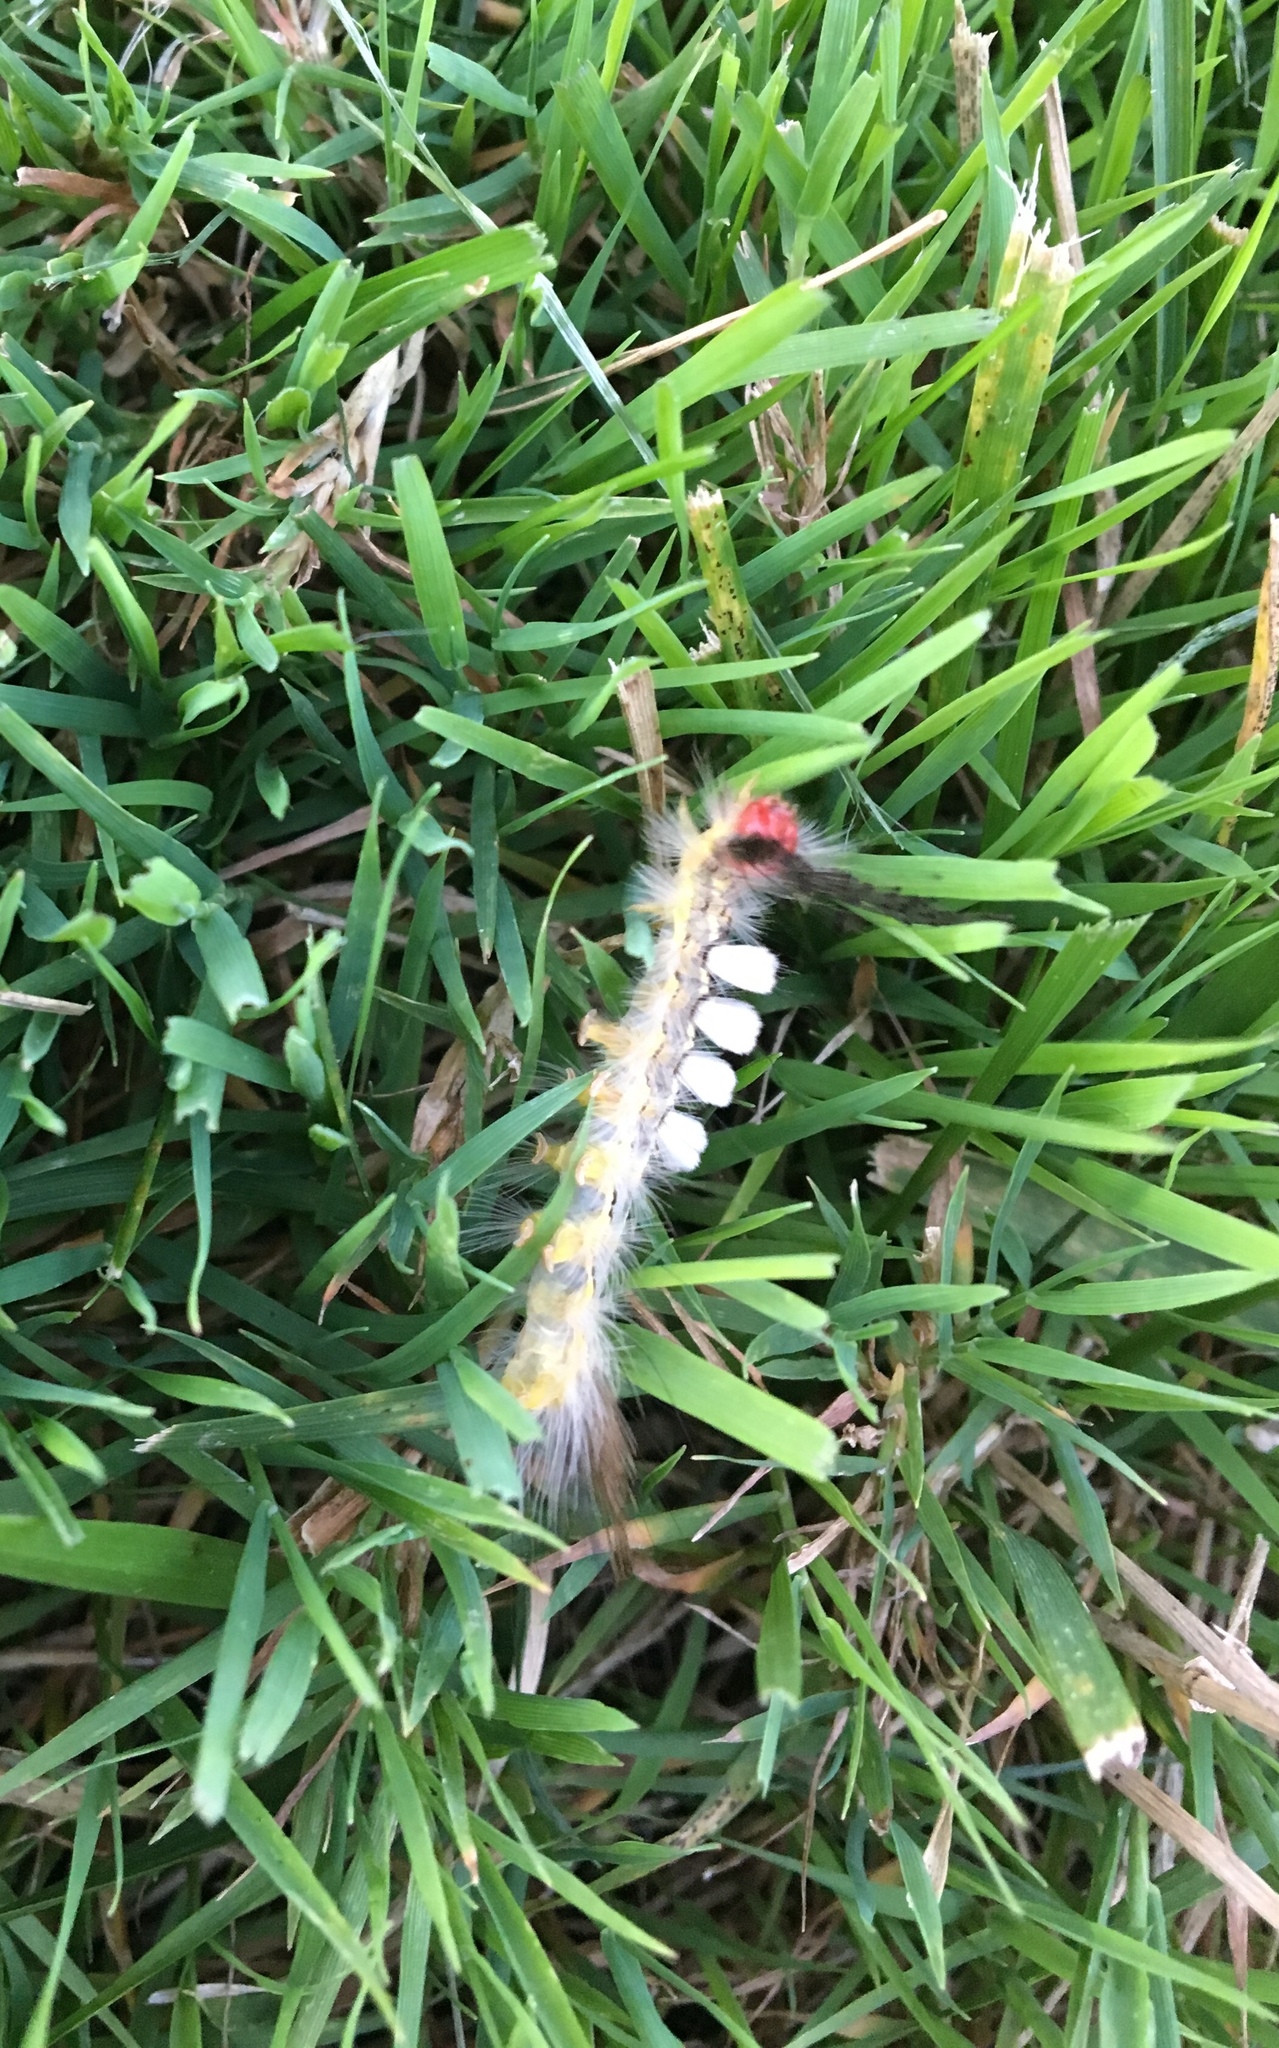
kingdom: Animalia
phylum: Arthropoda
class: Insecta
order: Lepidoptera
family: Erebidae
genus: Orgyia
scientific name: Orgyia leucostigma
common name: White-marked tussock moth
